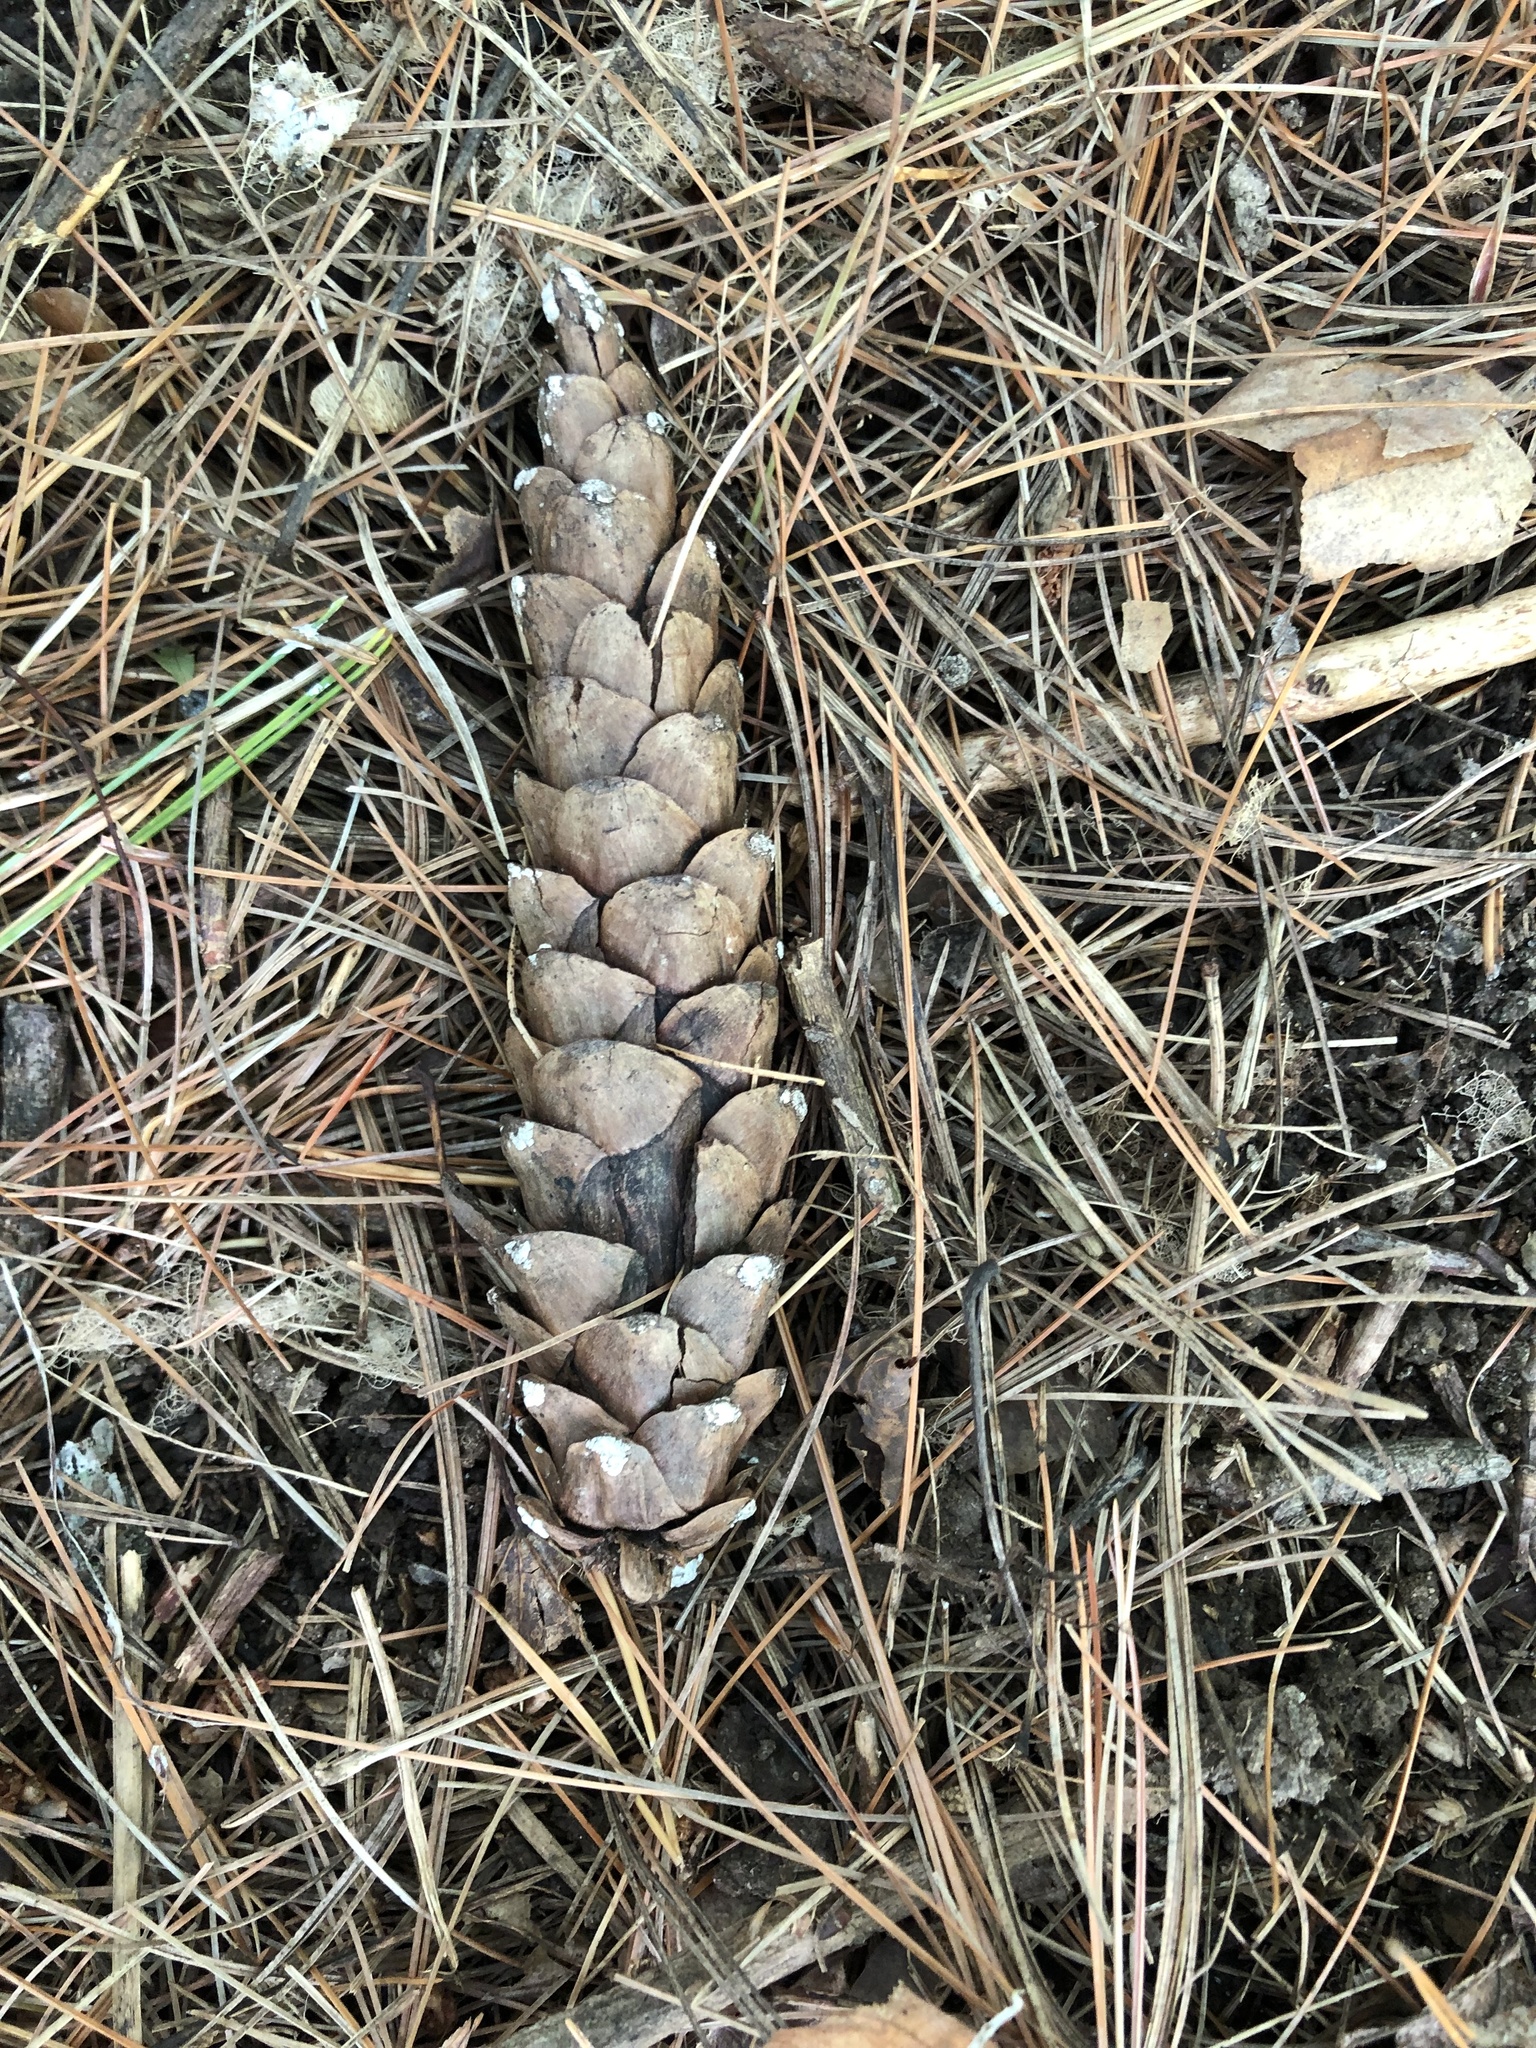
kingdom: Plantae
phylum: Tracheophyta
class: Pinopsida
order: Pinales
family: Pinaceae
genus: Pinus
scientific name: Pinus strobus
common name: Weymouth pine
